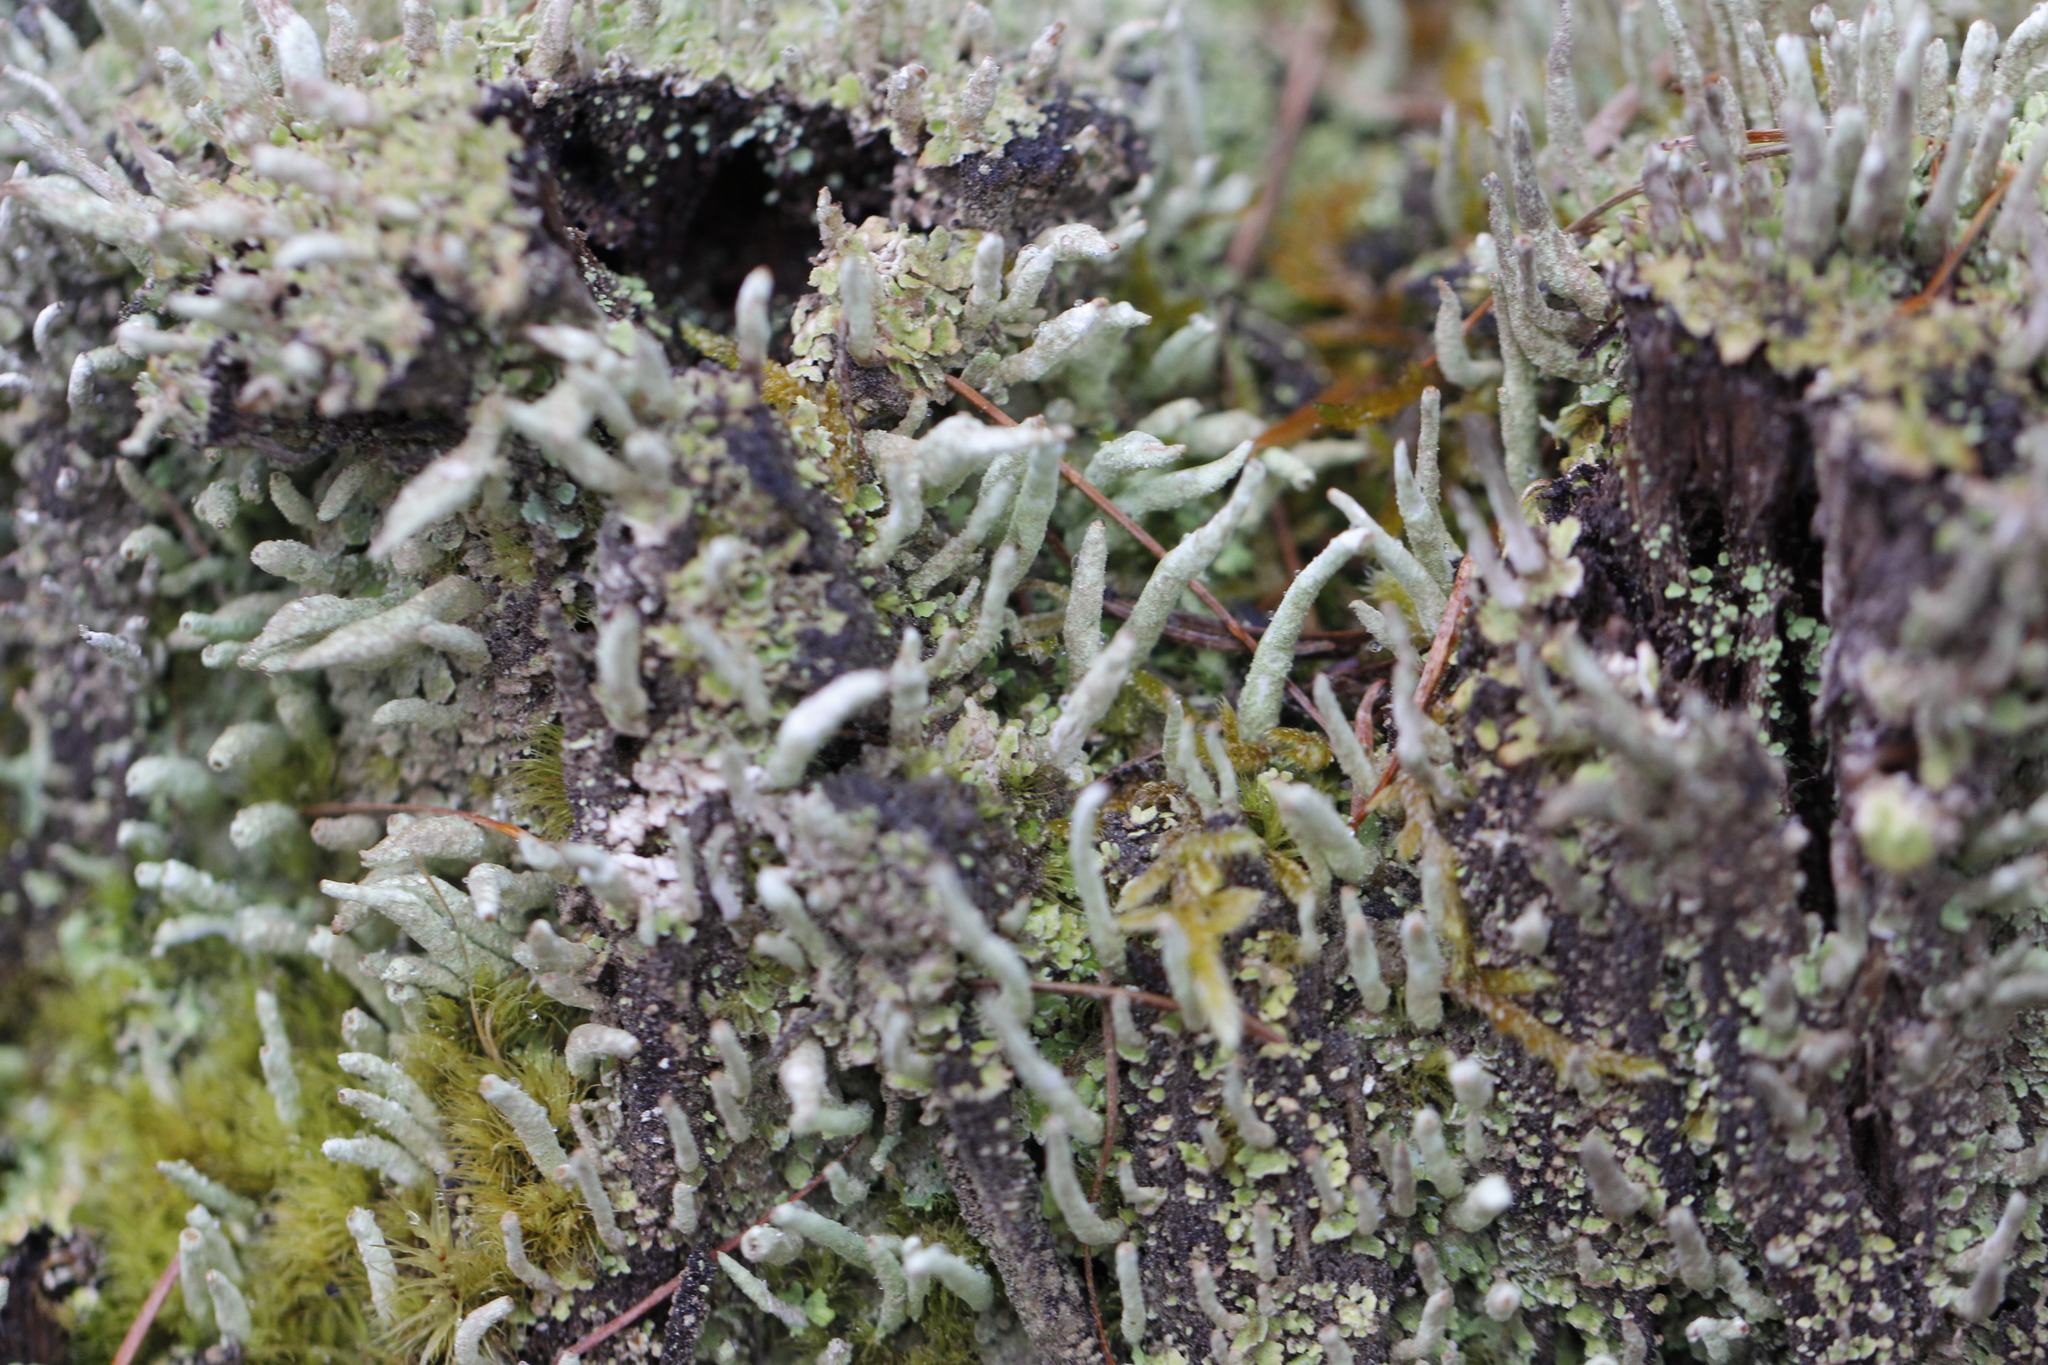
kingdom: Fungi
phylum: Ascomycota
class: Lecanoromycetes
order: Lecanorales
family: Cladoniaceae
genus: Cladonia
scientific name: Cladonia coniocraea
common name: Common powderhorn
